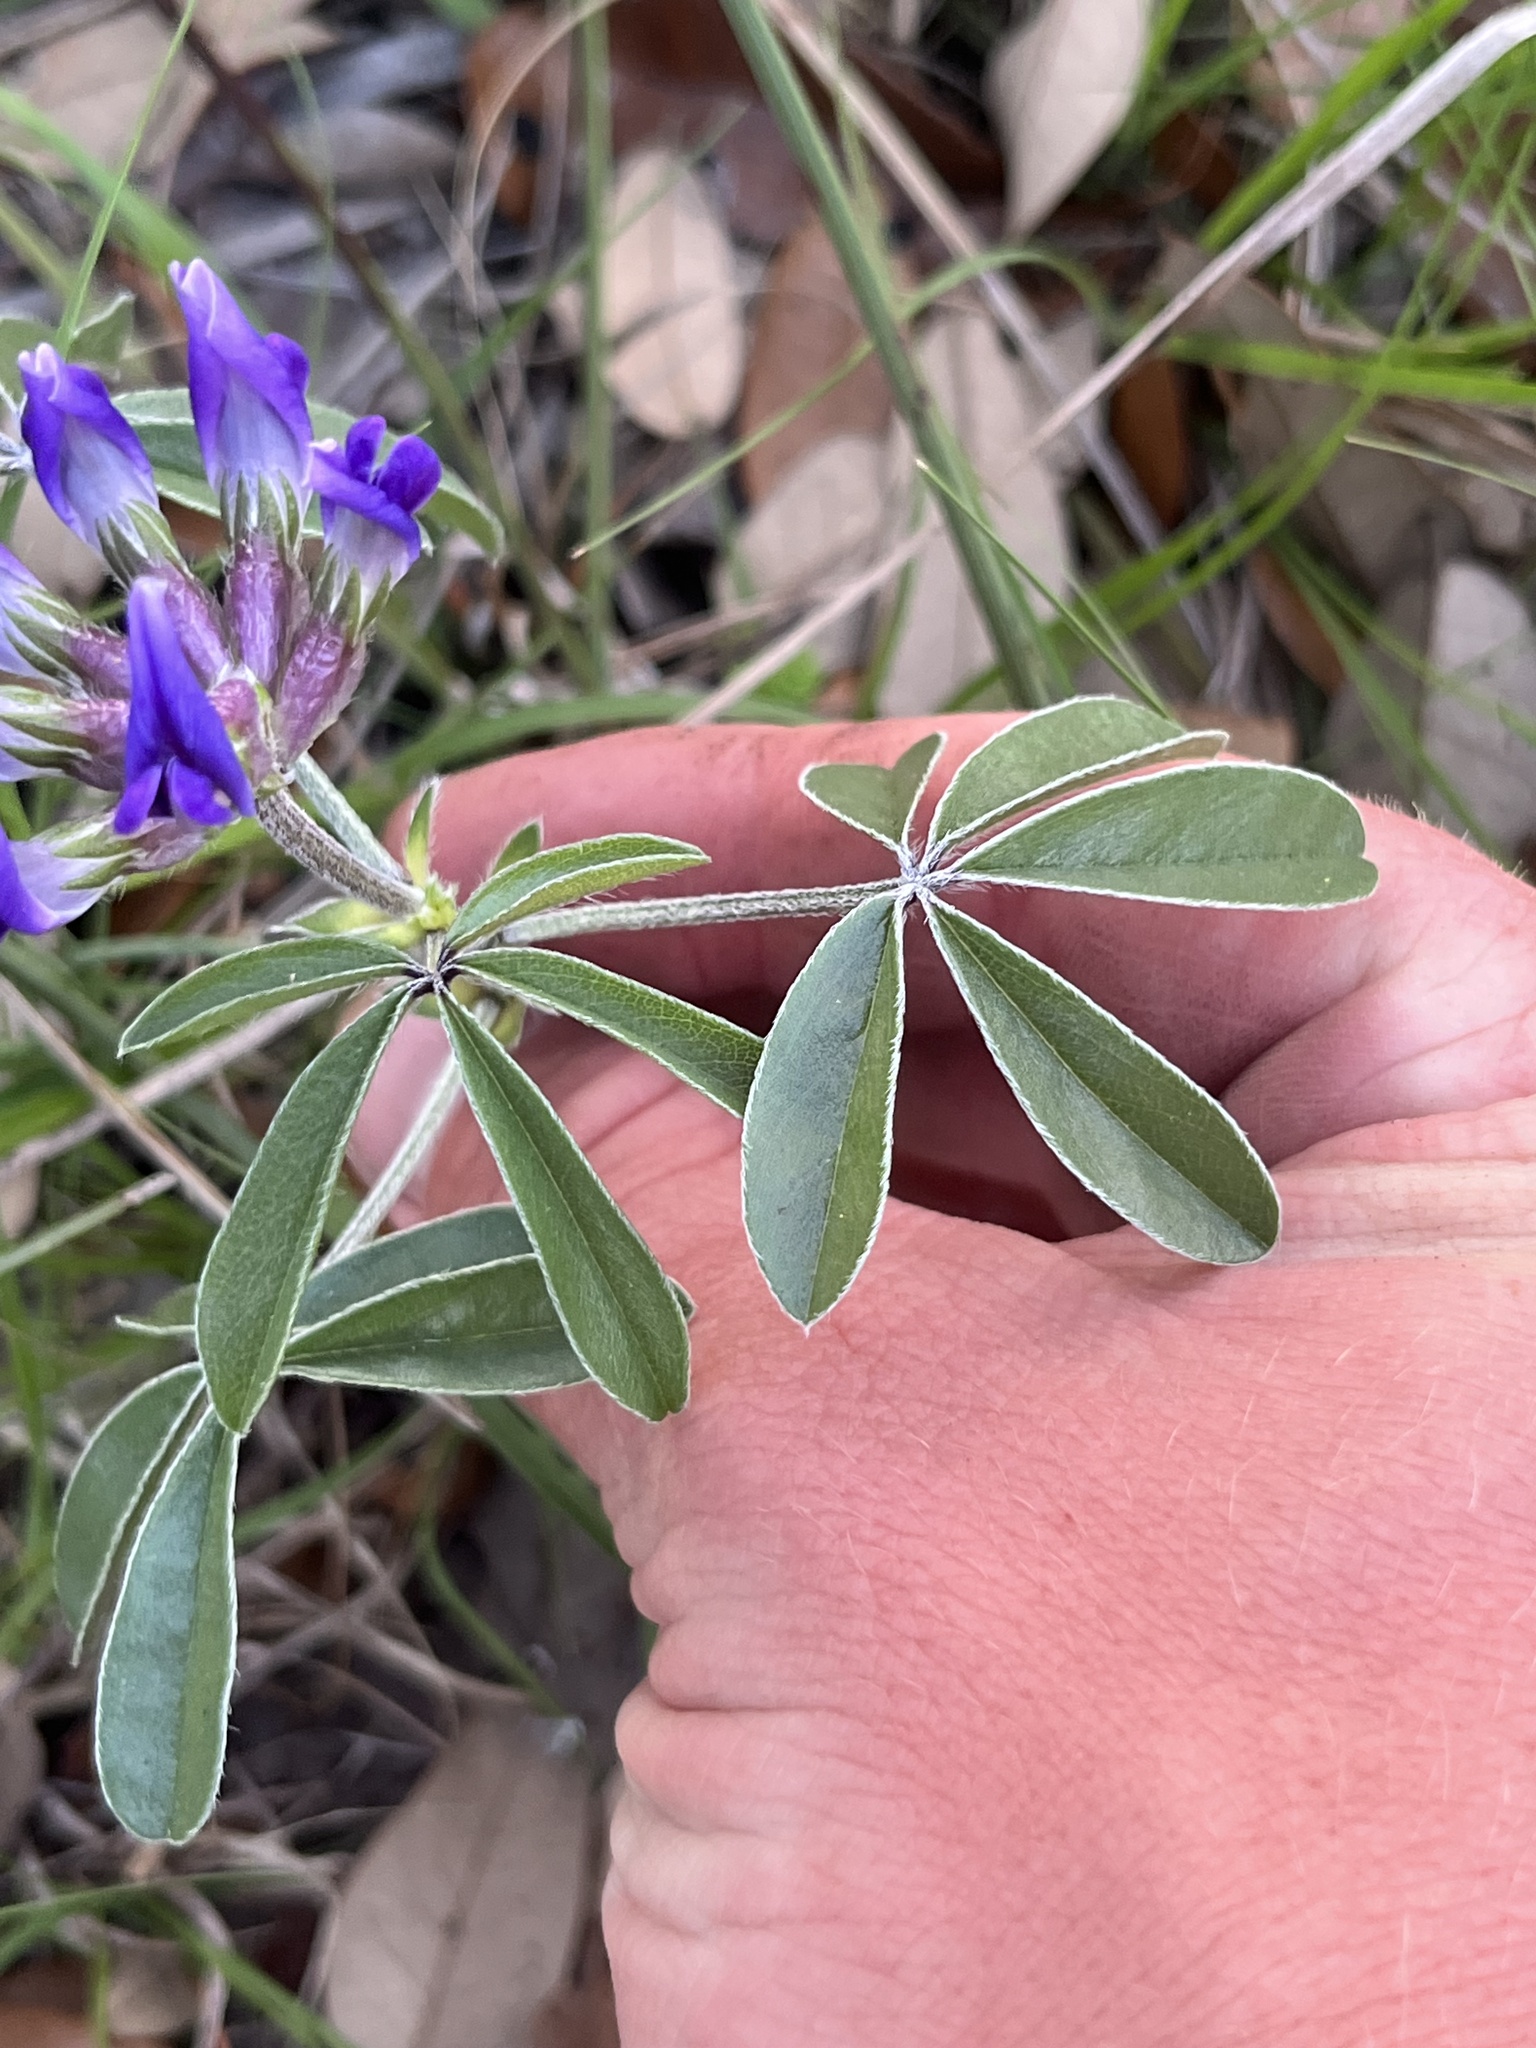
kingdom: Plantae
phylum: Tracheophyta
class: Magnoliopsida
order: Fabales
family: Fabaceae
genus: Pediomelum
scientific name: Pediomelum latestipulatum
